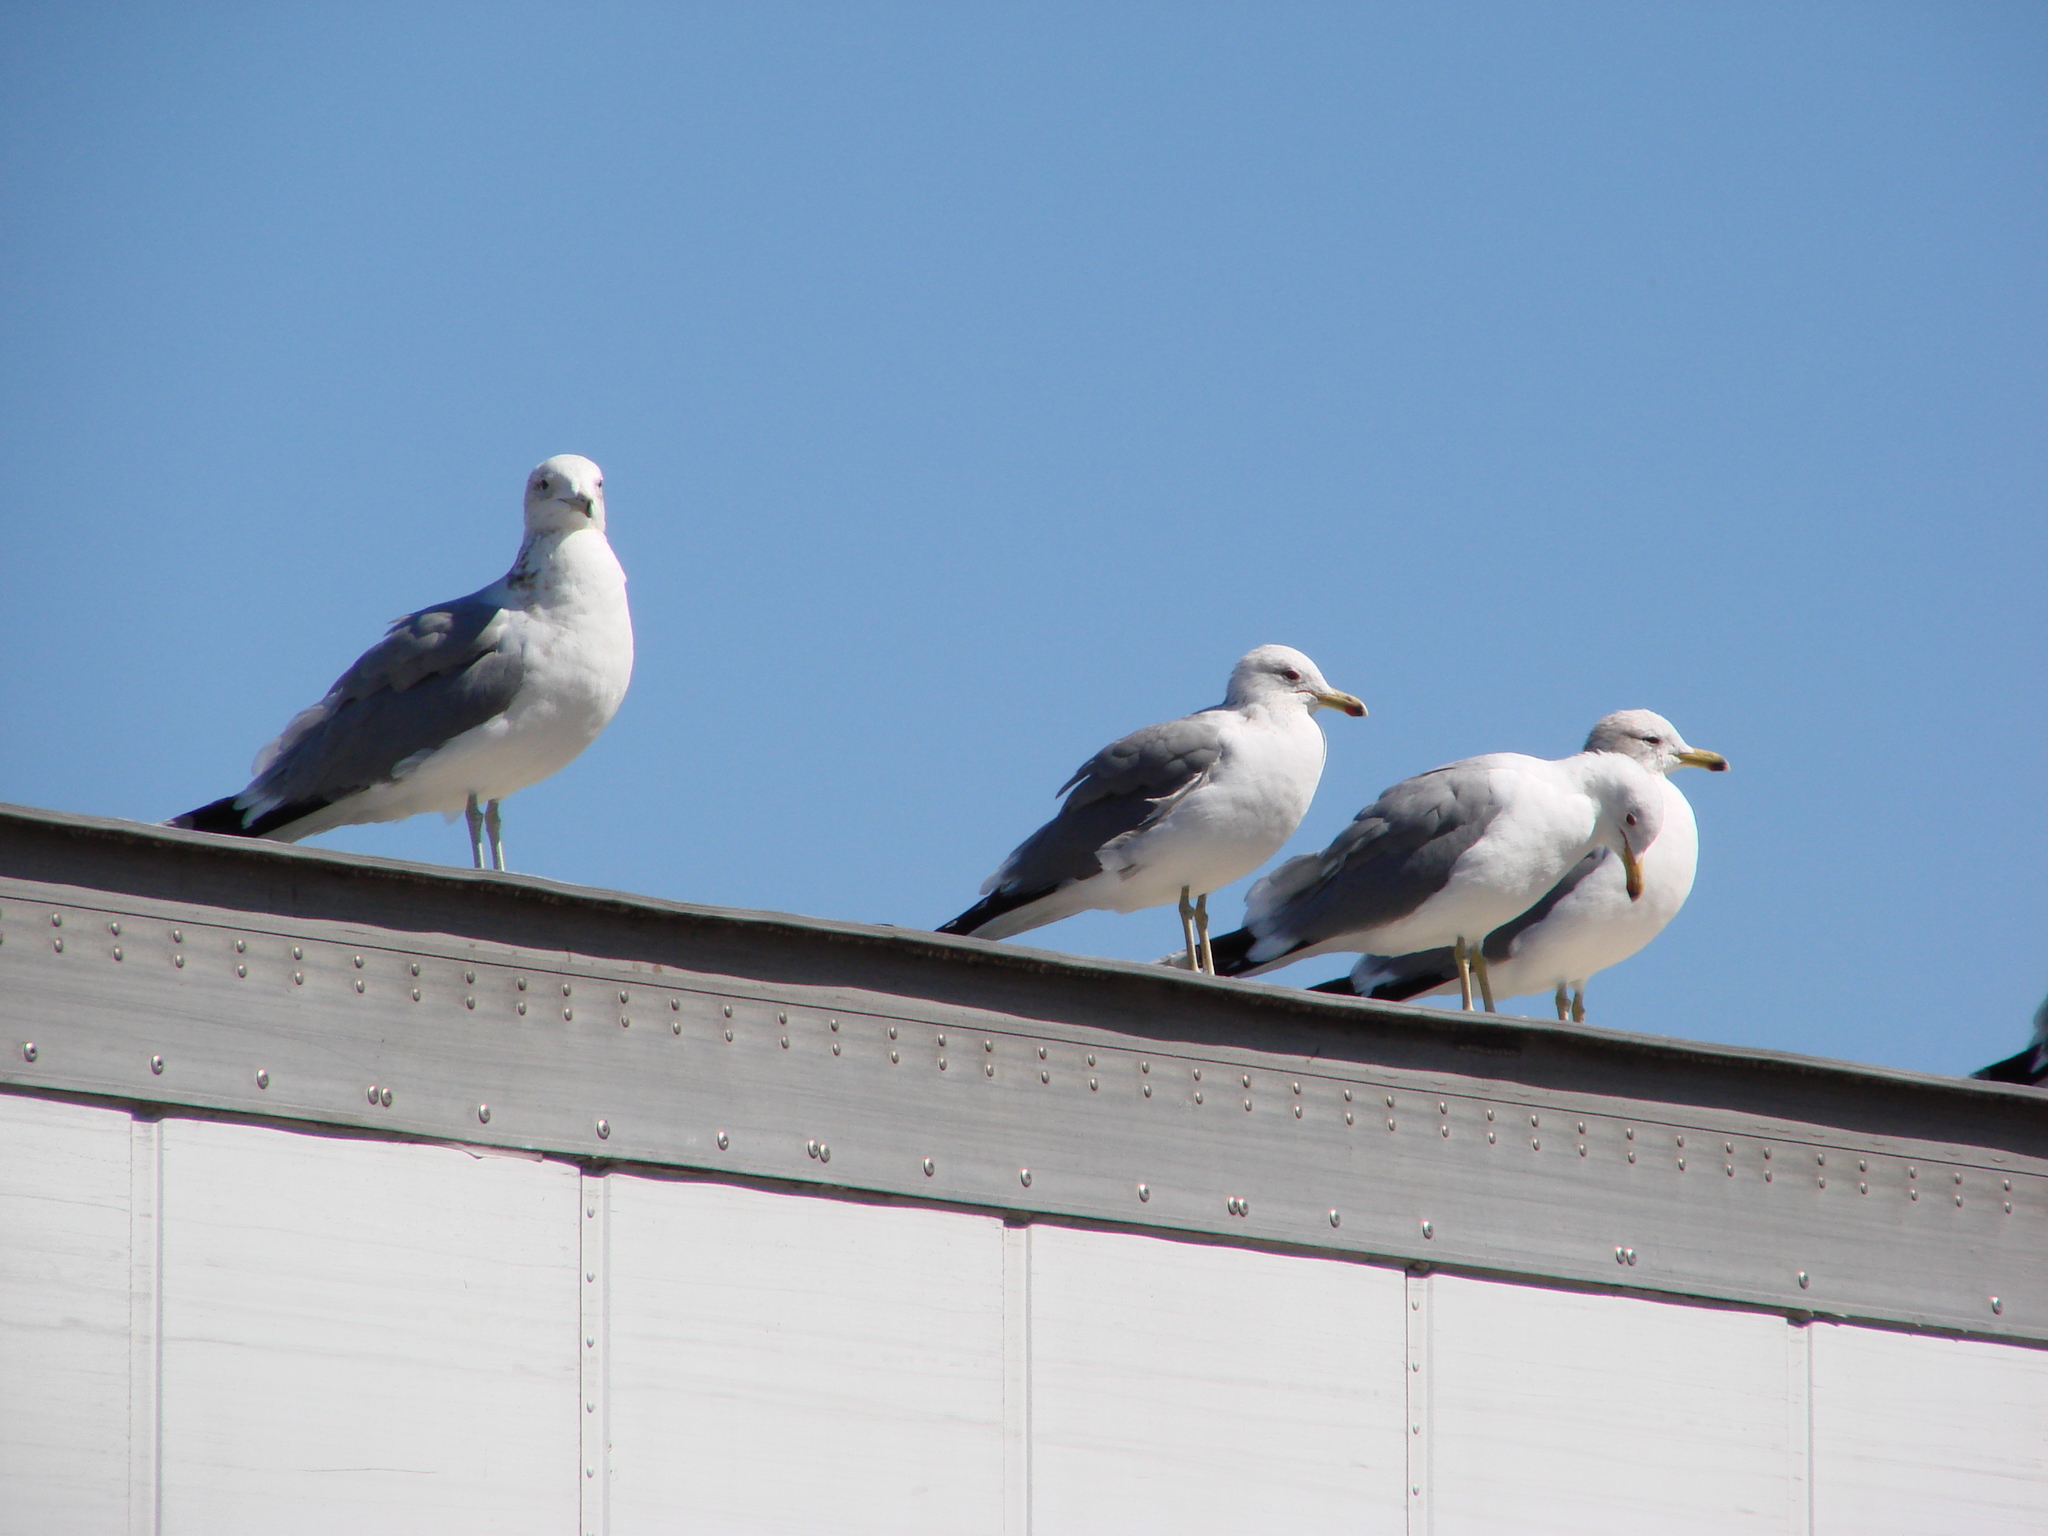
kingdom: Animalia
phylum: Chordata
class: Aves
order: Charadriiformes
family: Laridae
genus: Larus
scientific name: Larus californicus
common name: California gull
